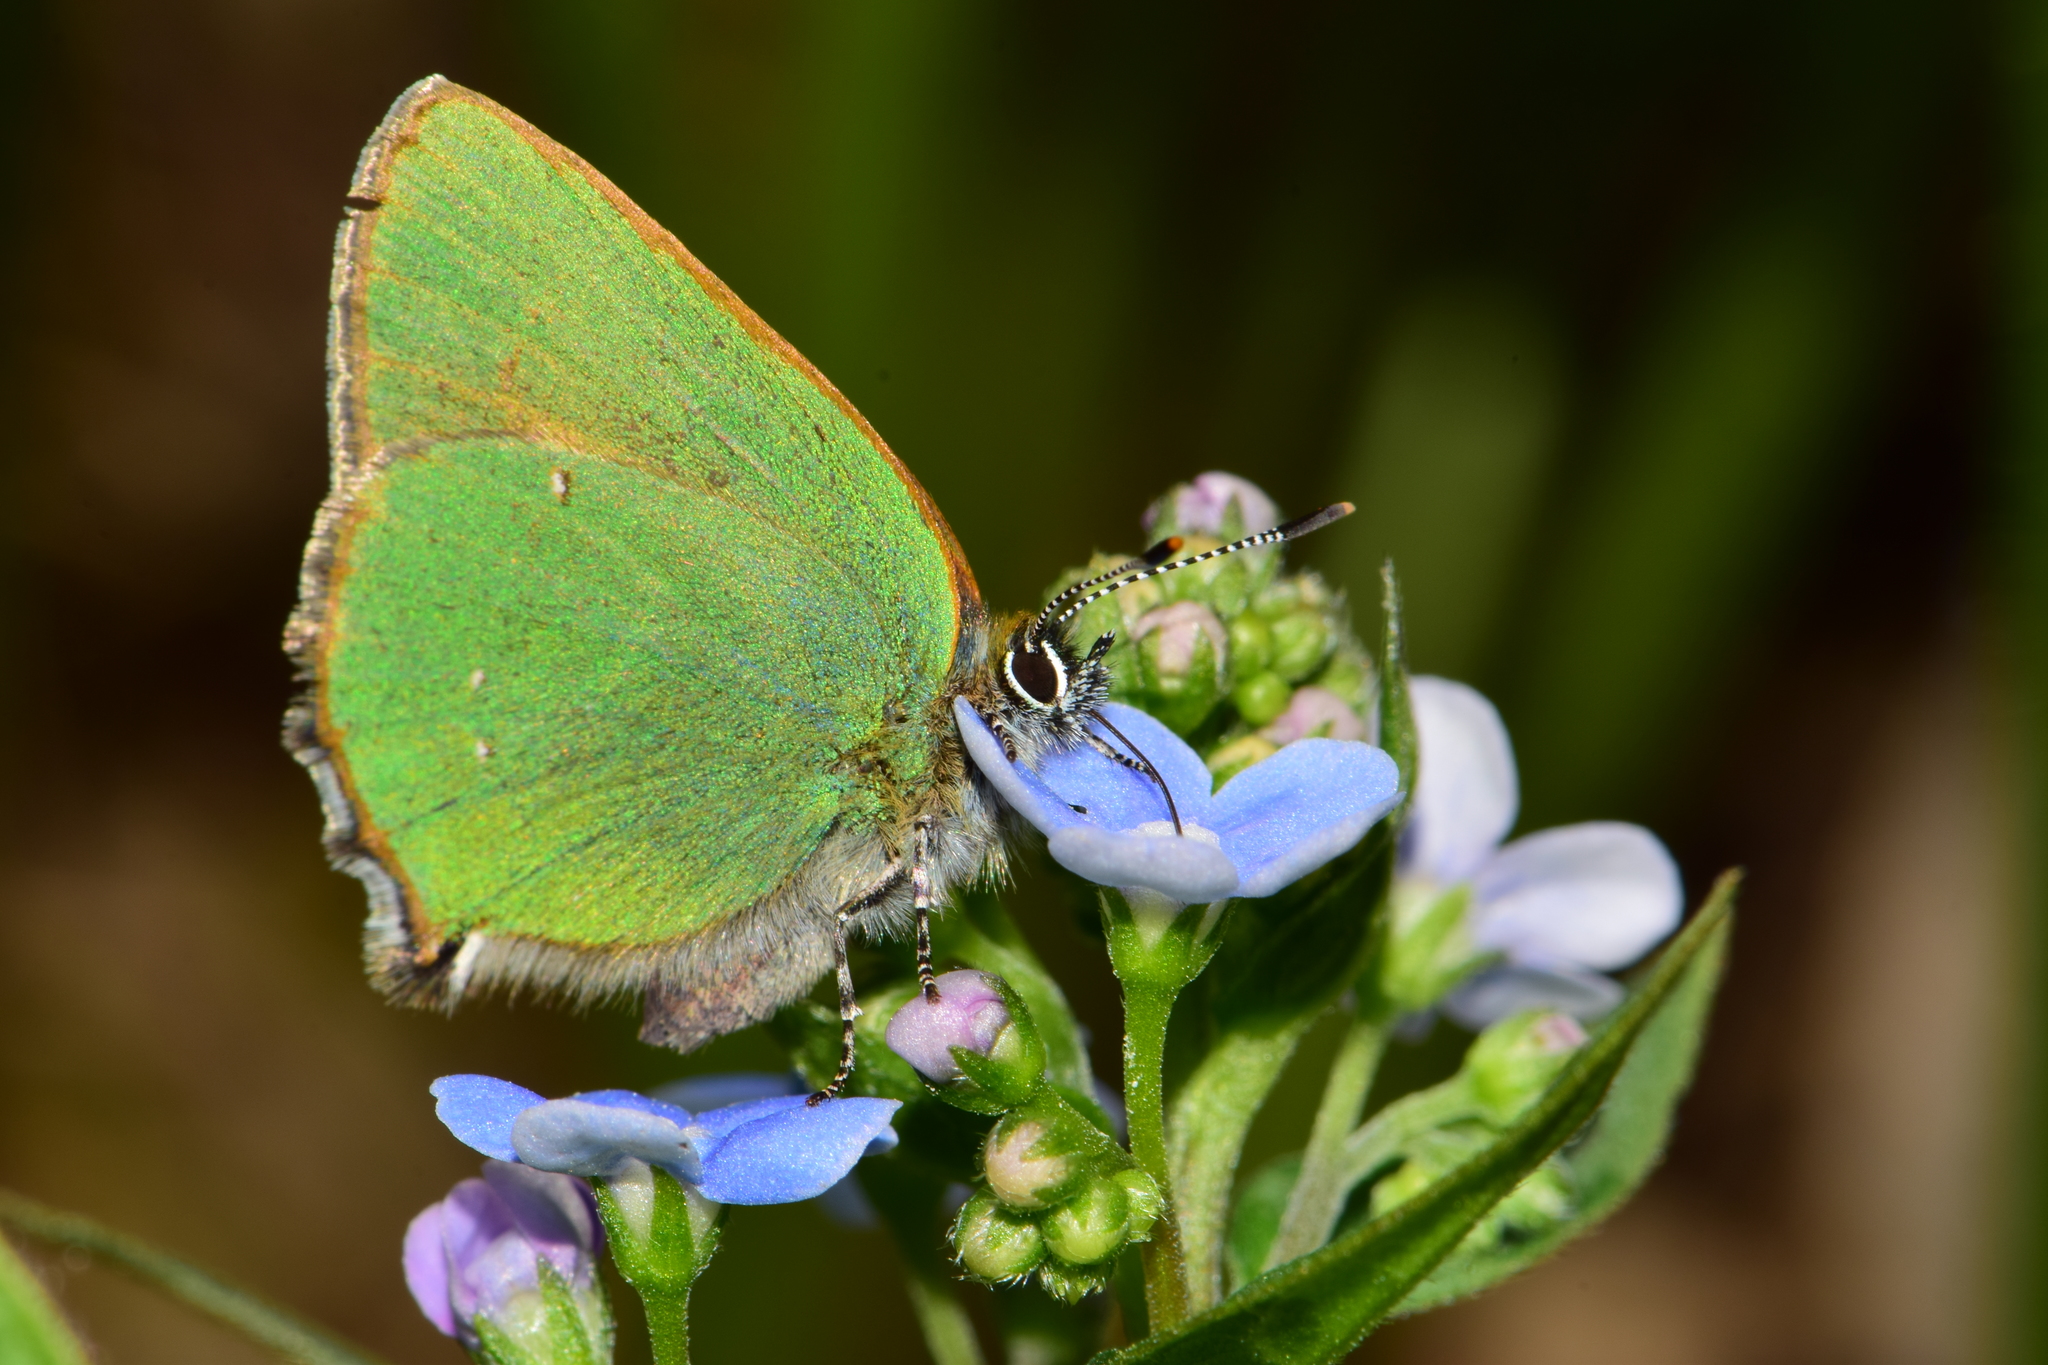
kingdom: Animalia
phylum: Arthropoda
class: Insecta
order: Lepidoptera
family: Lycaenidae
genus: Callophrys
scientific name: Callophrys rubi
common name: Green hairstreak
